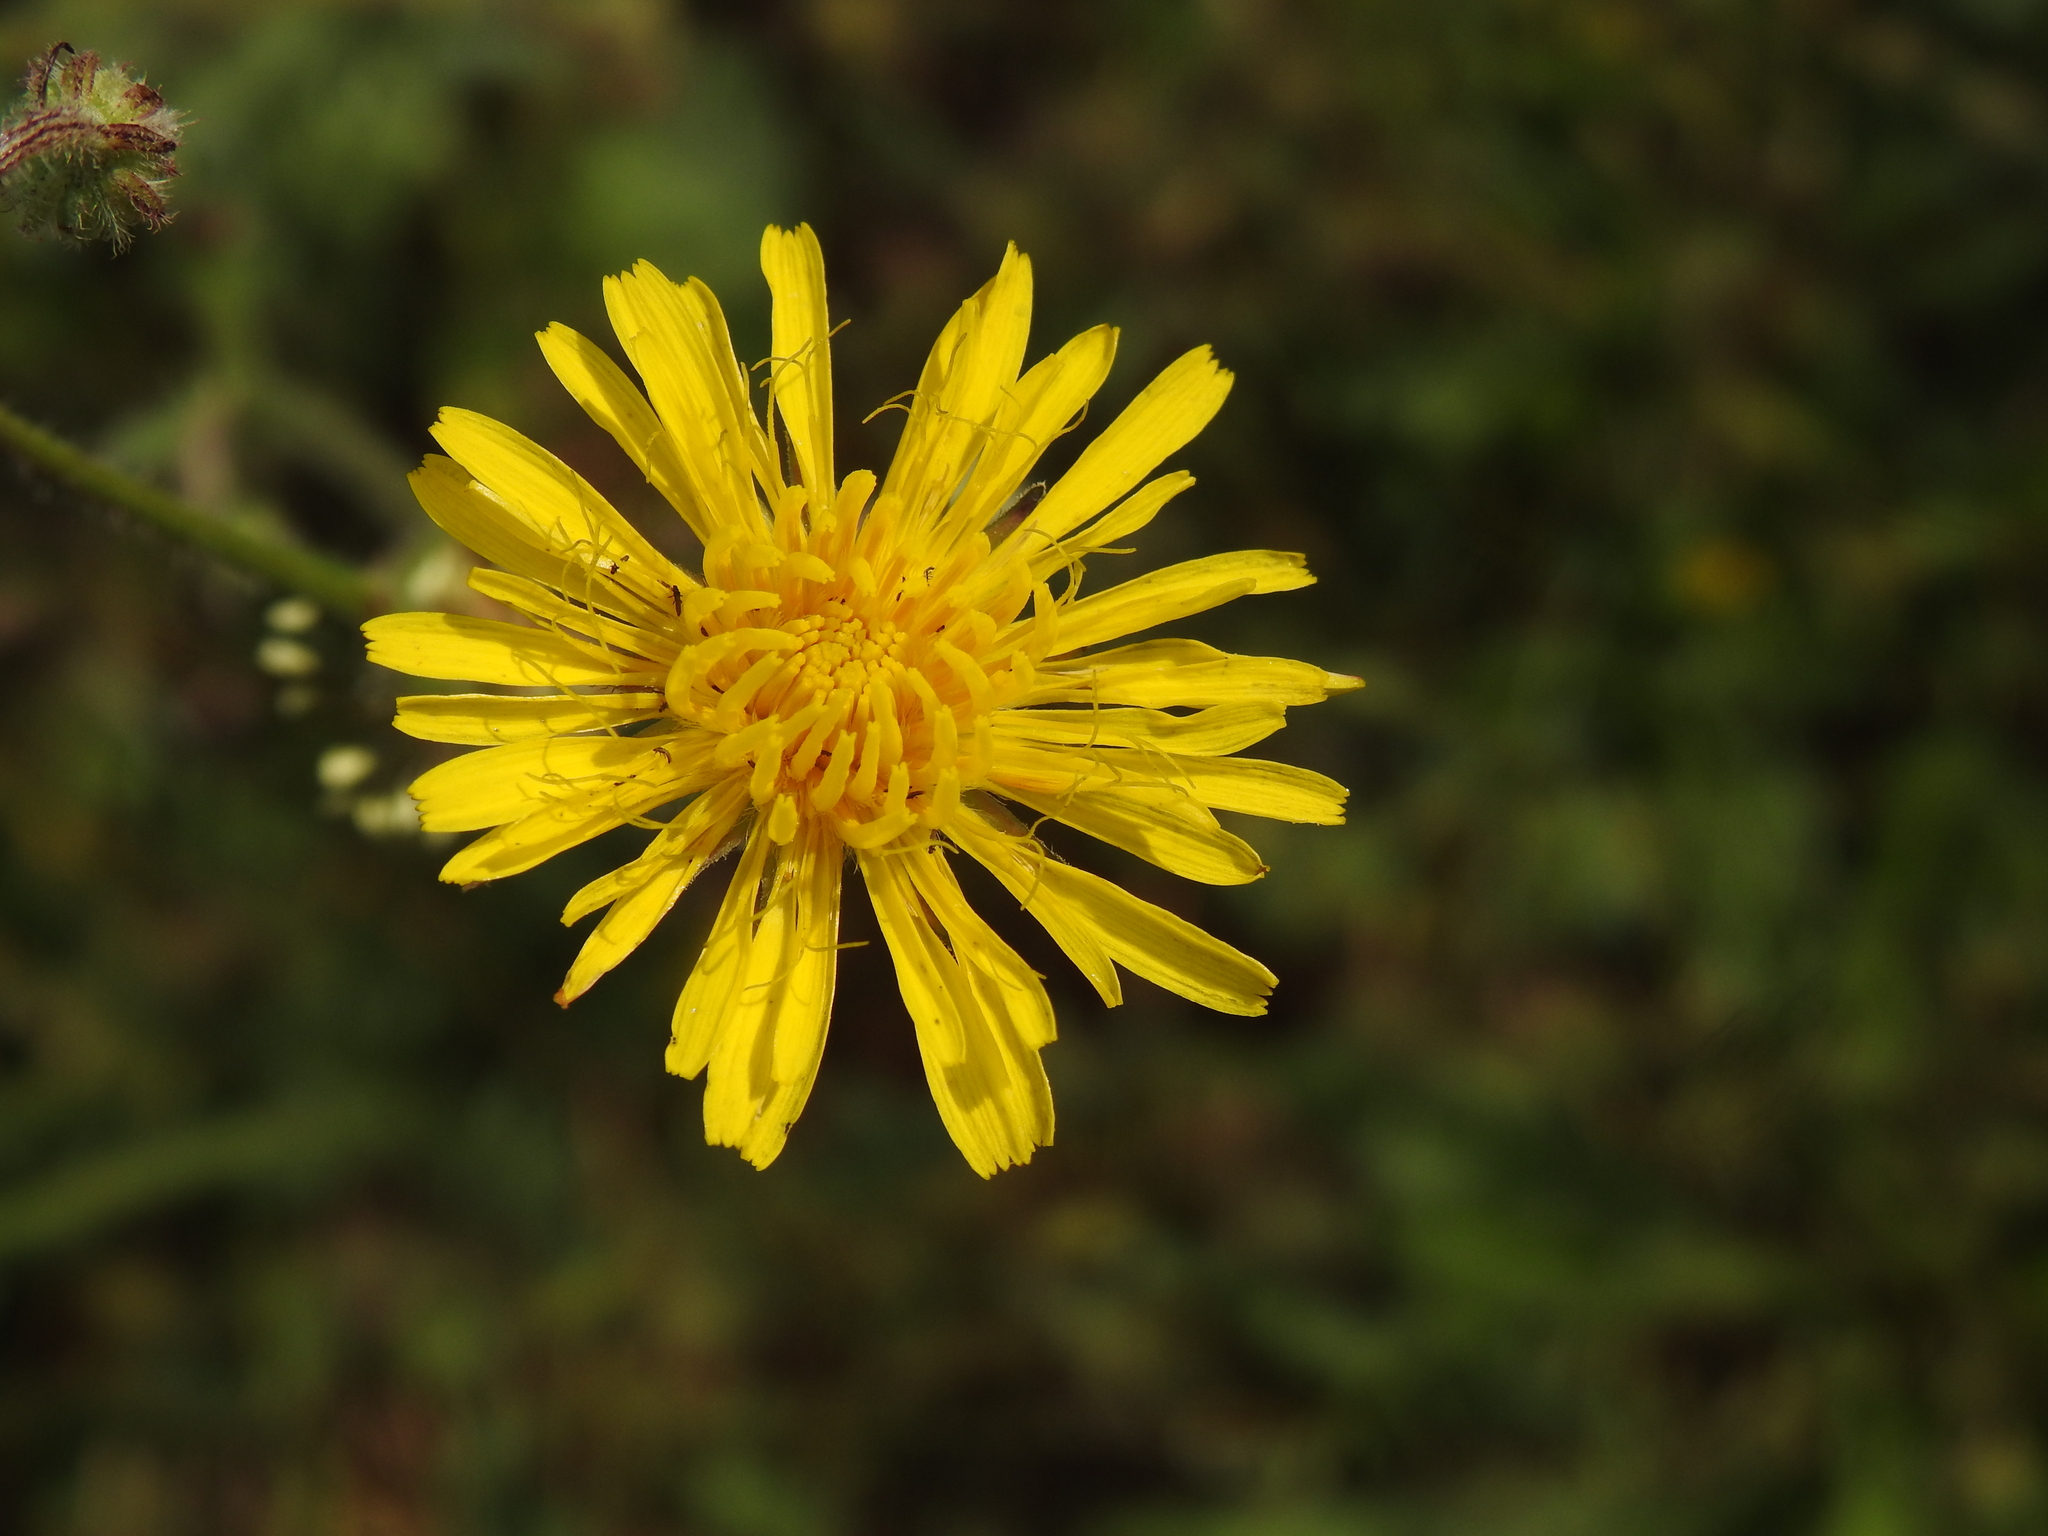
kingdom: Plantae
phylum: Tracheophyta
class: Magnoliopsida
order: Asterales
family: Asteraceae
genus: Crepis
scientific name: Crepis vesicaria
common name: Beaked hawksbeard
